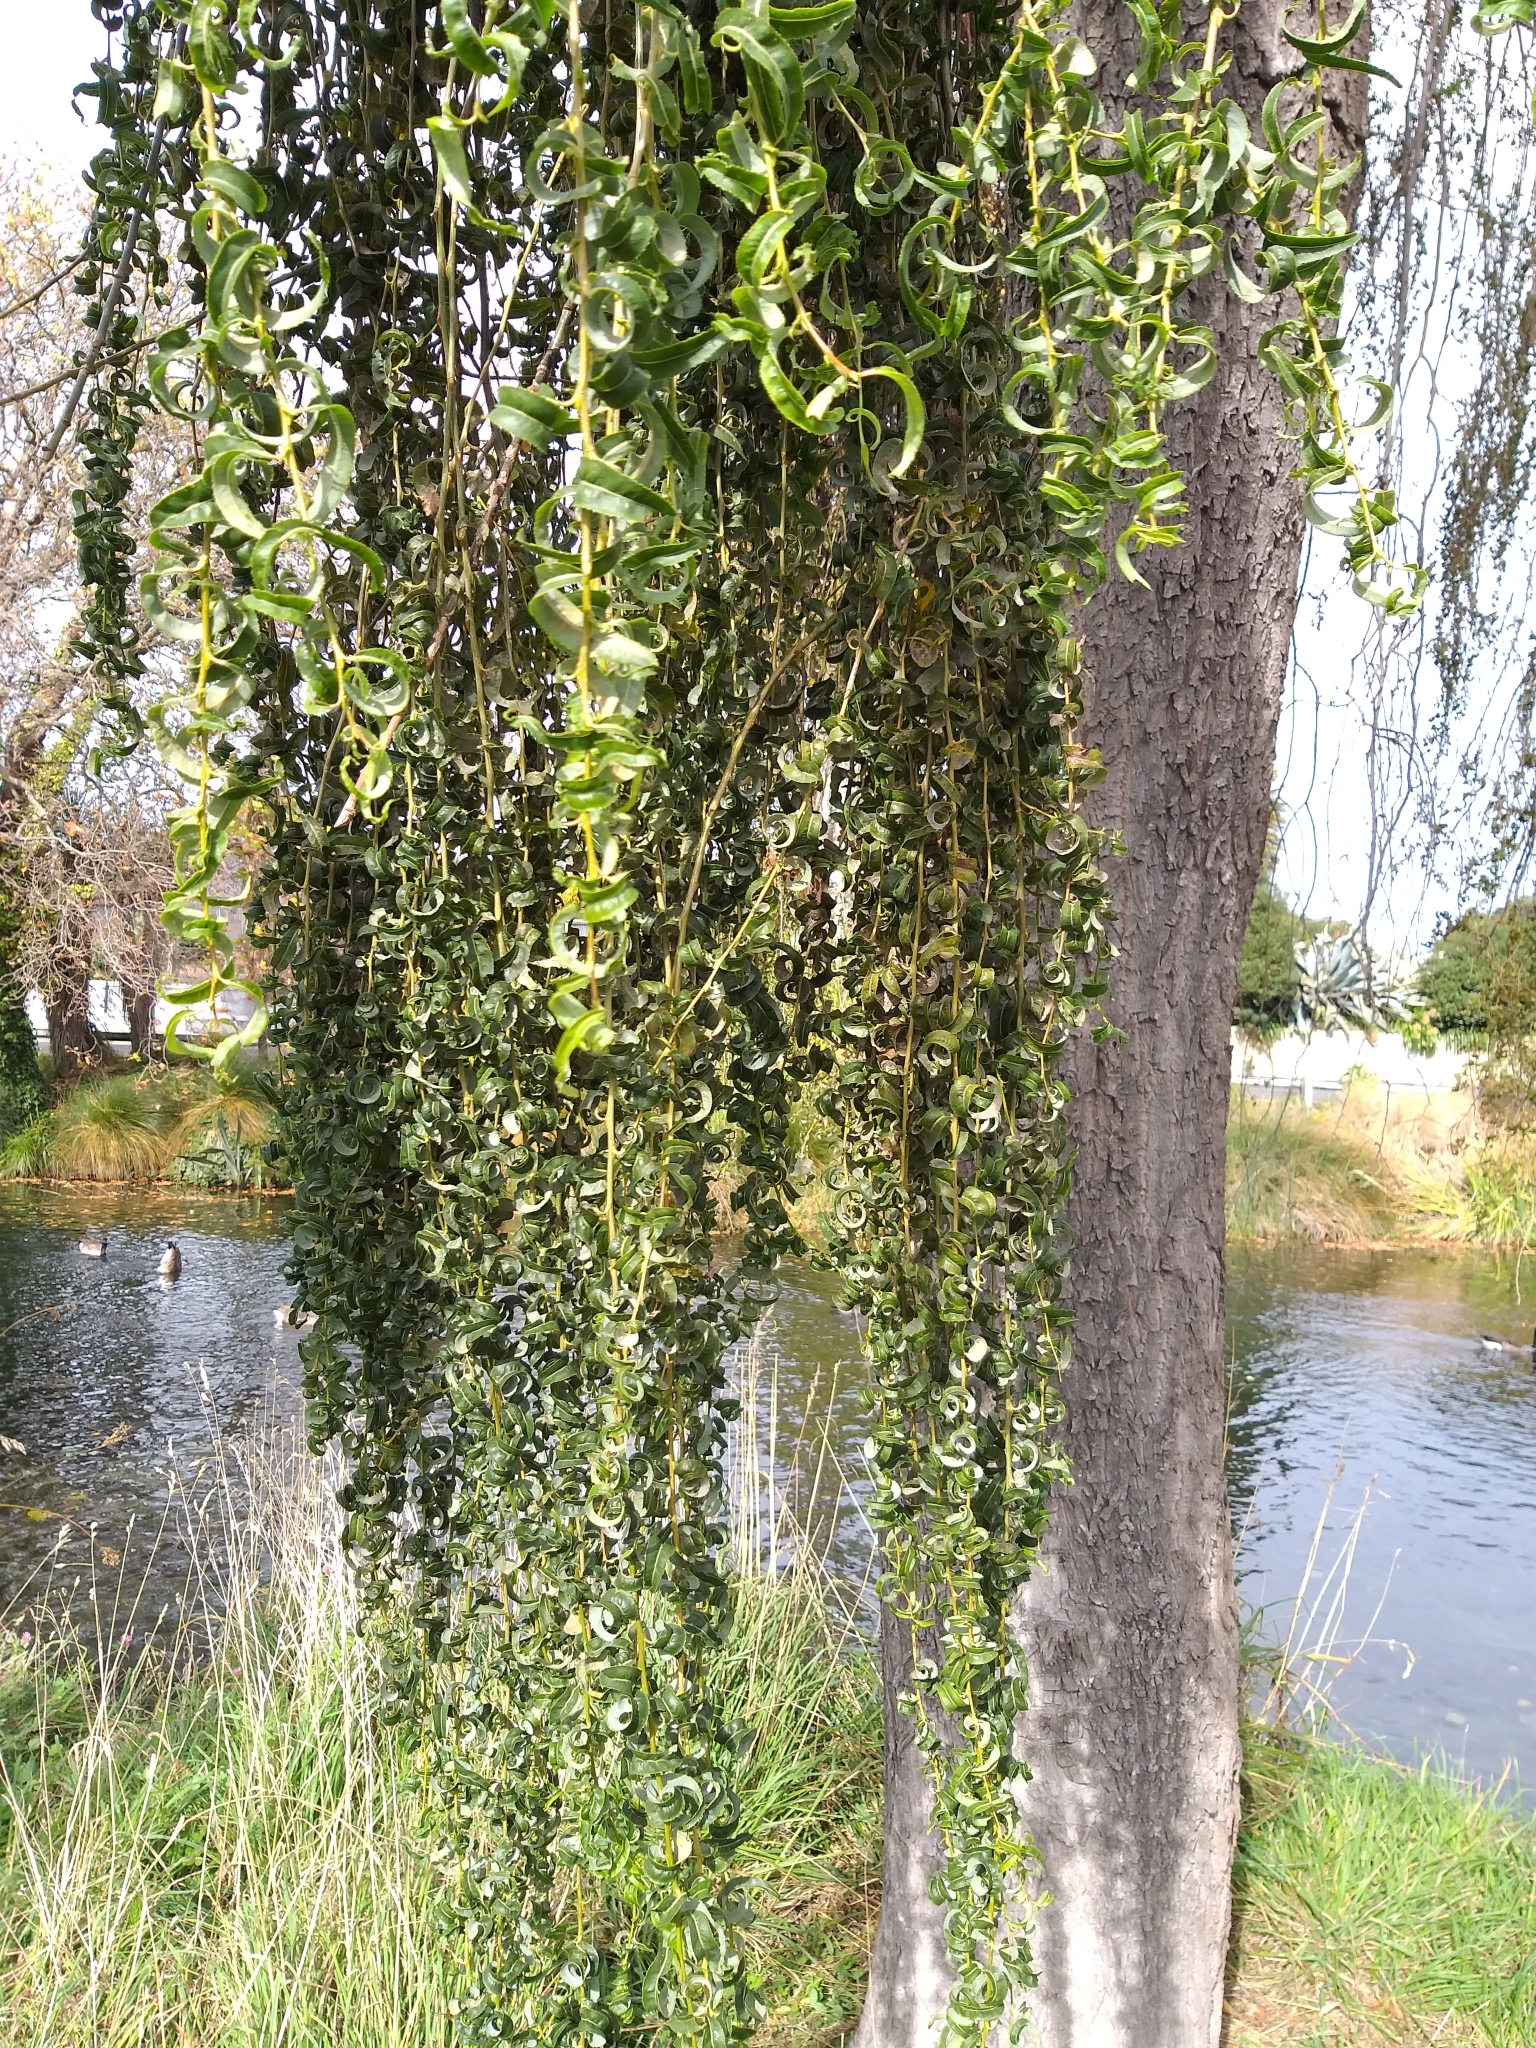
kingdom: Plantae
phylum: Tracheophyta
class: Magnoliopsida
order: Malpighiales
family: Salicaceae
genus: Salix
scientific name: Salix babylonica
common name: Weeping willow
